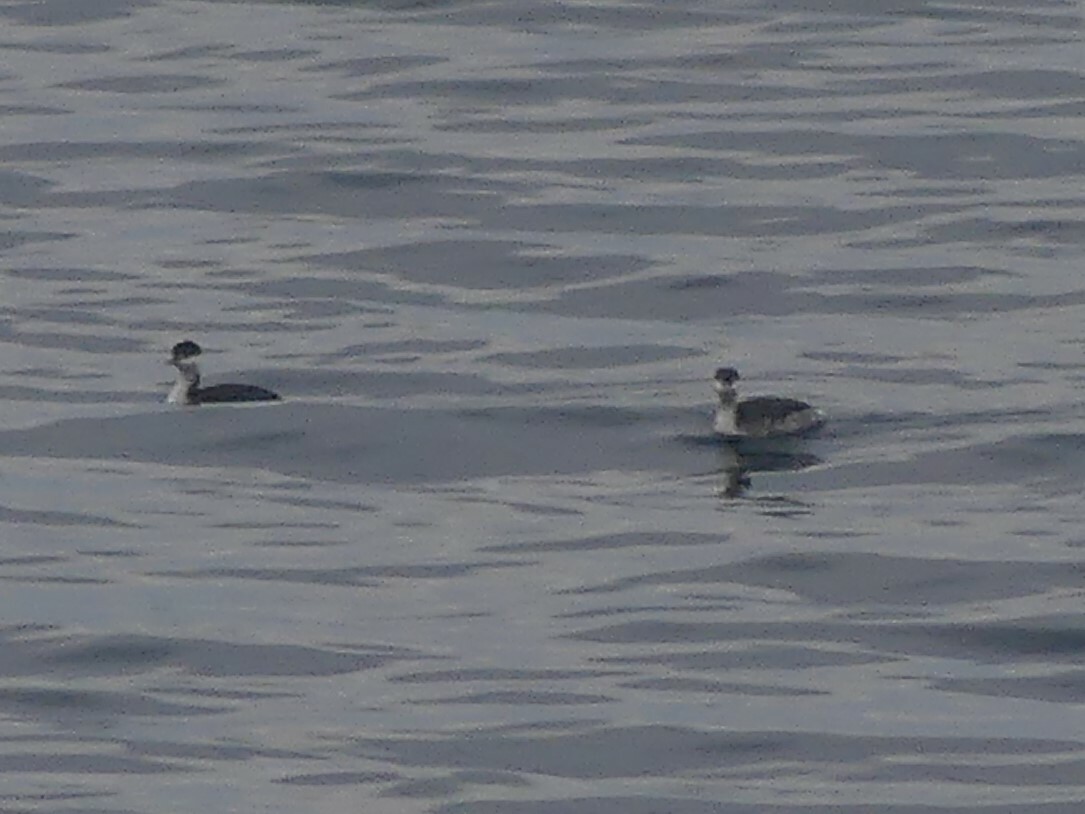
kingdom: Animalia
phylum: Chordata
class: Aves
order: Podicipediformes
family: Podicipedidae
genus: Podiceps
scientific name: Podiceps auritus
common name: Horned grebe
